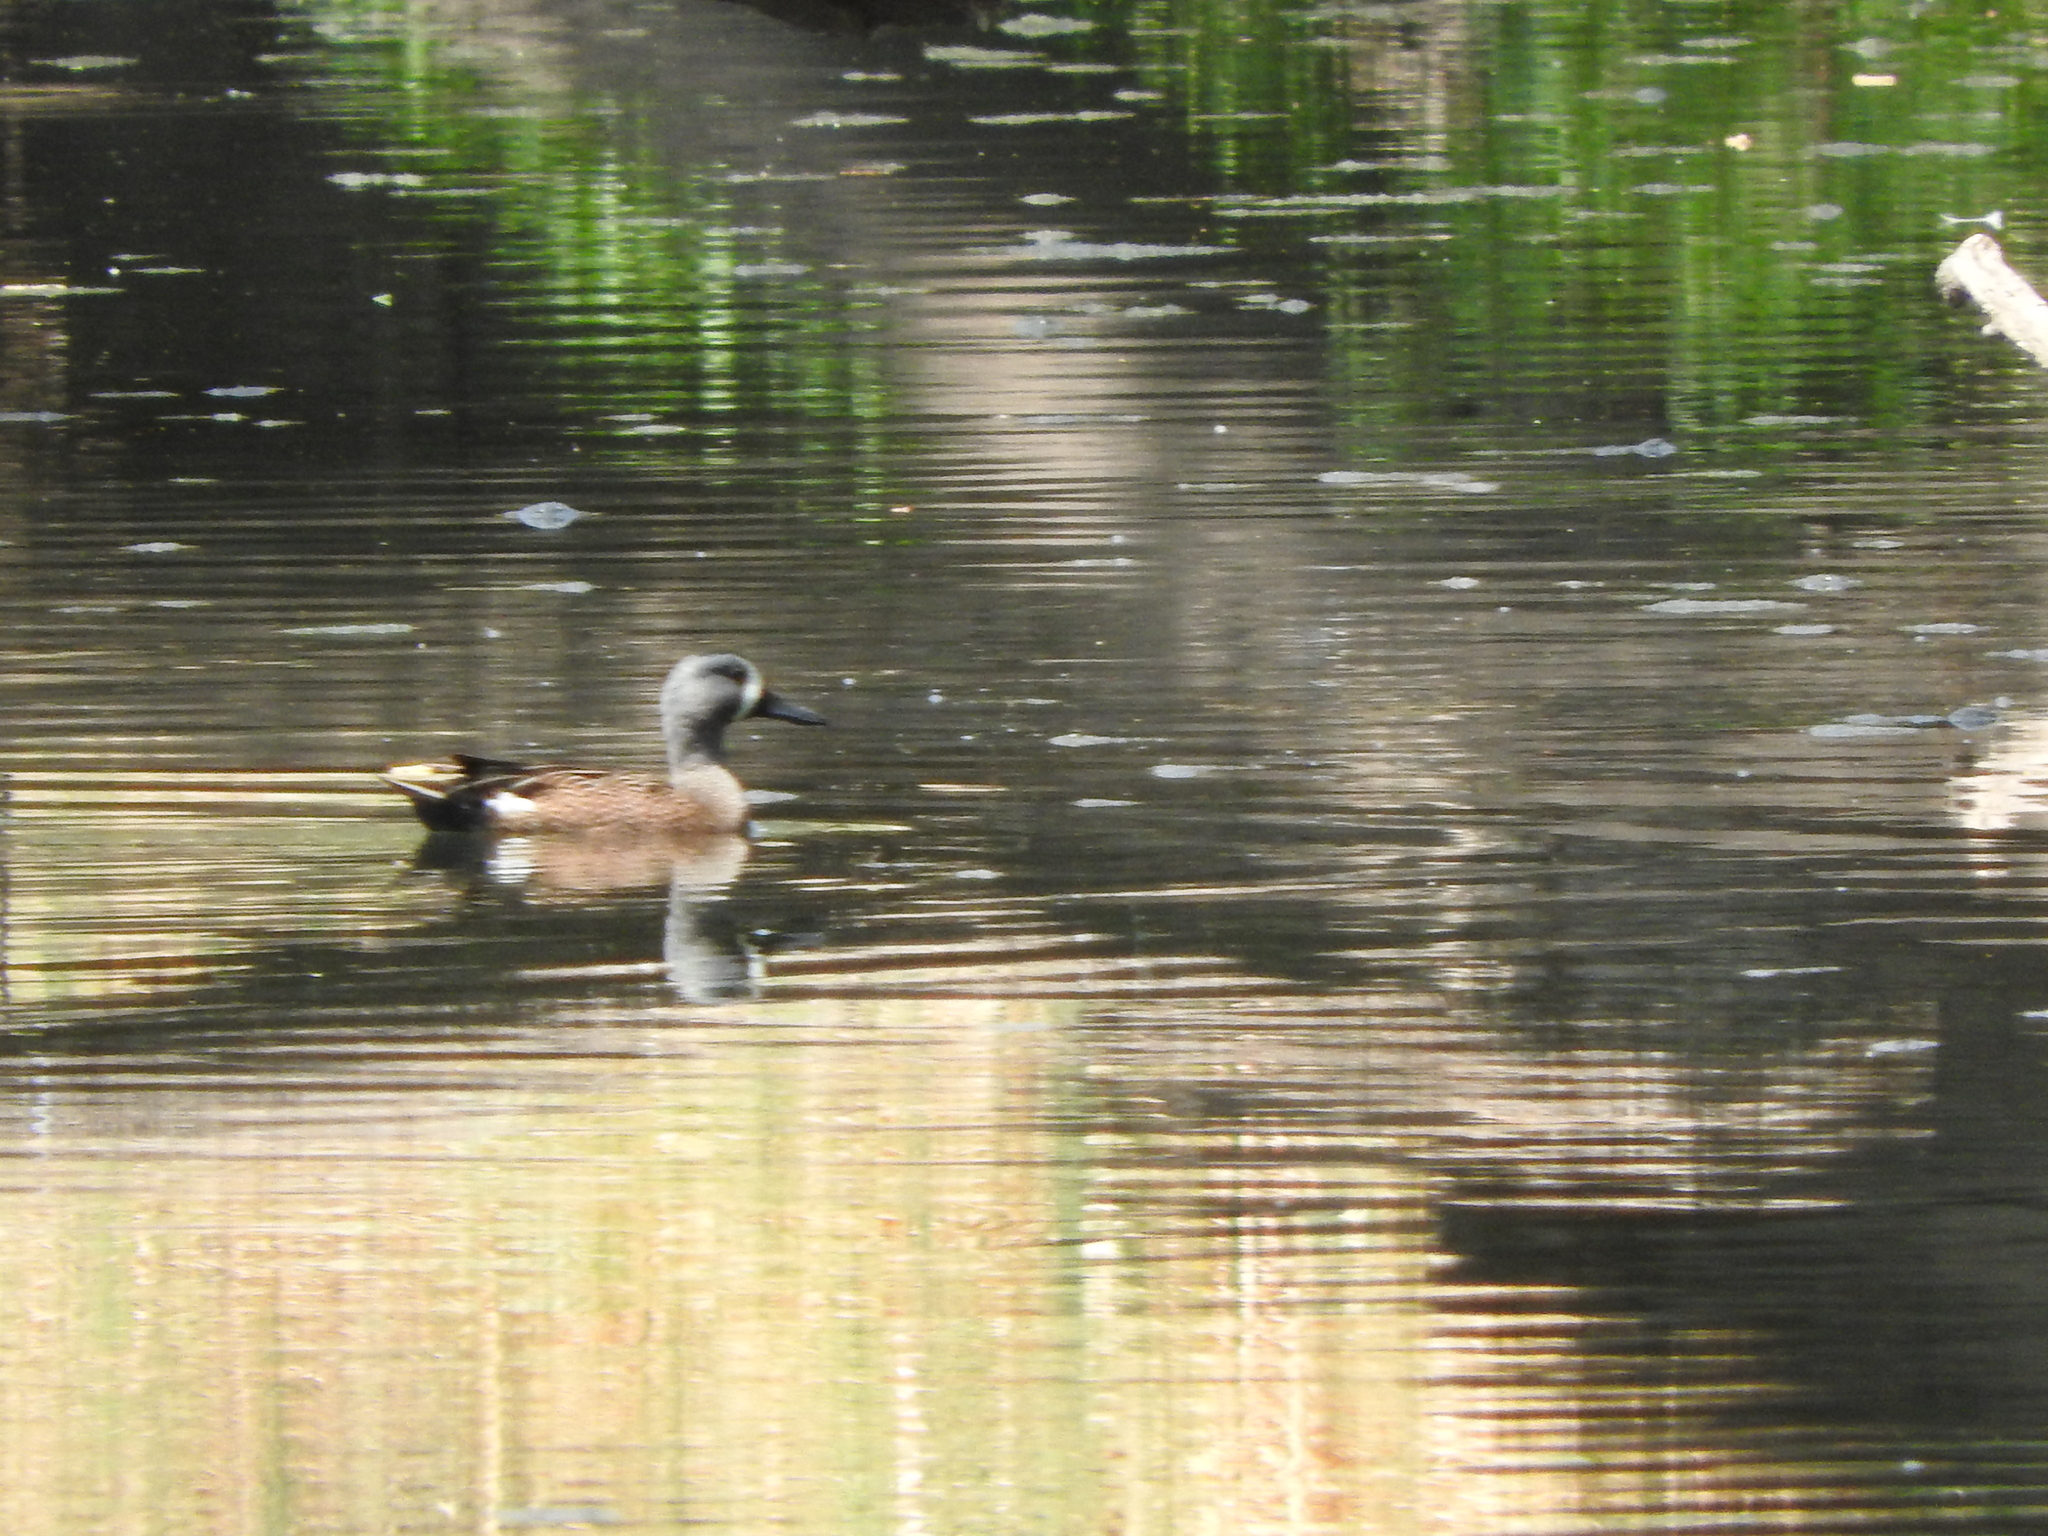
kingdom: Animalia
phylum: Chordata
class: Aves
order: Anseriformes
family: Anatidae
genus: Spatula
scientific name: Spatula discors
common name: Blue-winged teal
